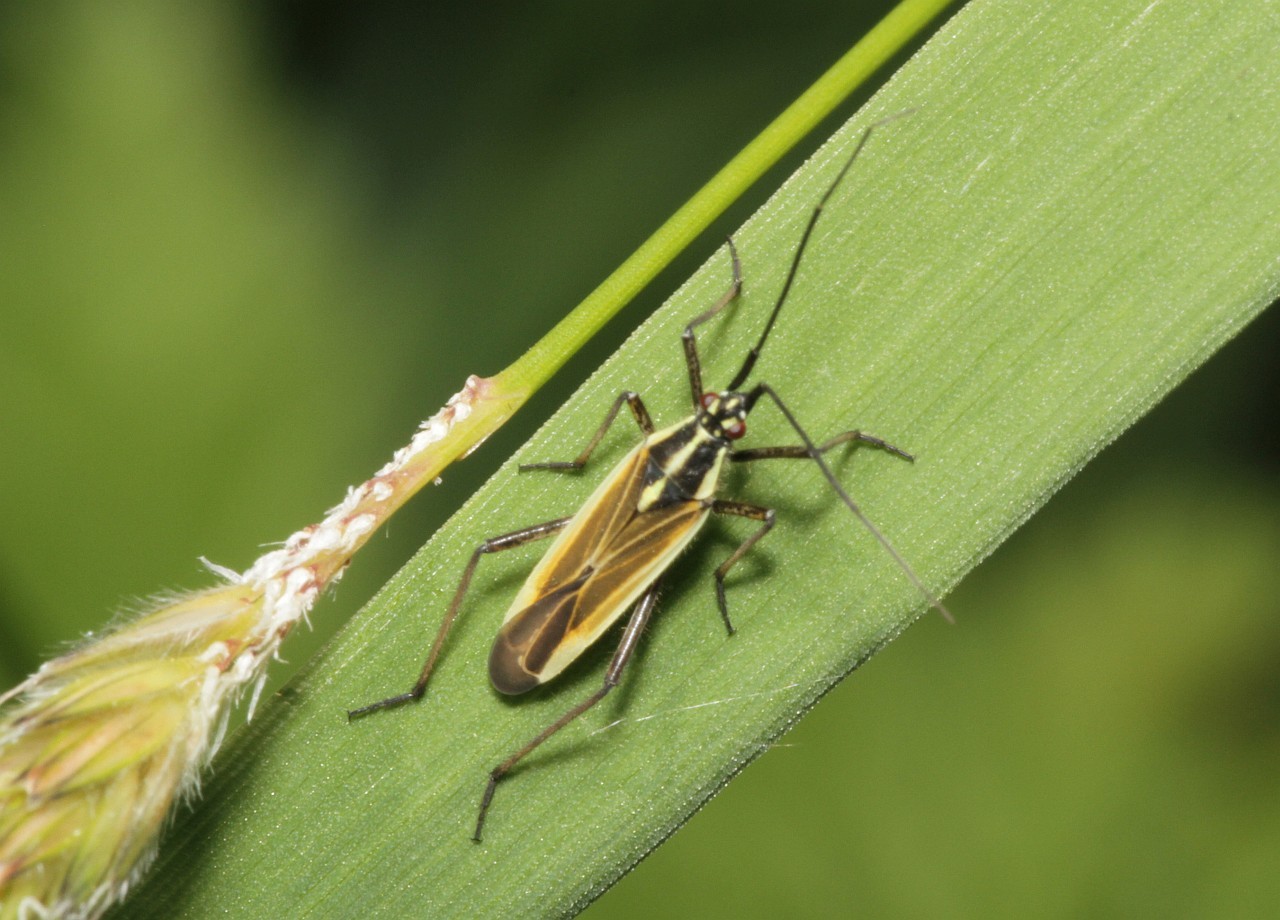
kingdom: Animalia
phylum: Arthropoda
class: Insecta
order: Hemiptera
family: Miridae
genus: Leptopterna
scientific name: Leptopterna dolabrata
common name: Meadow plant bug
